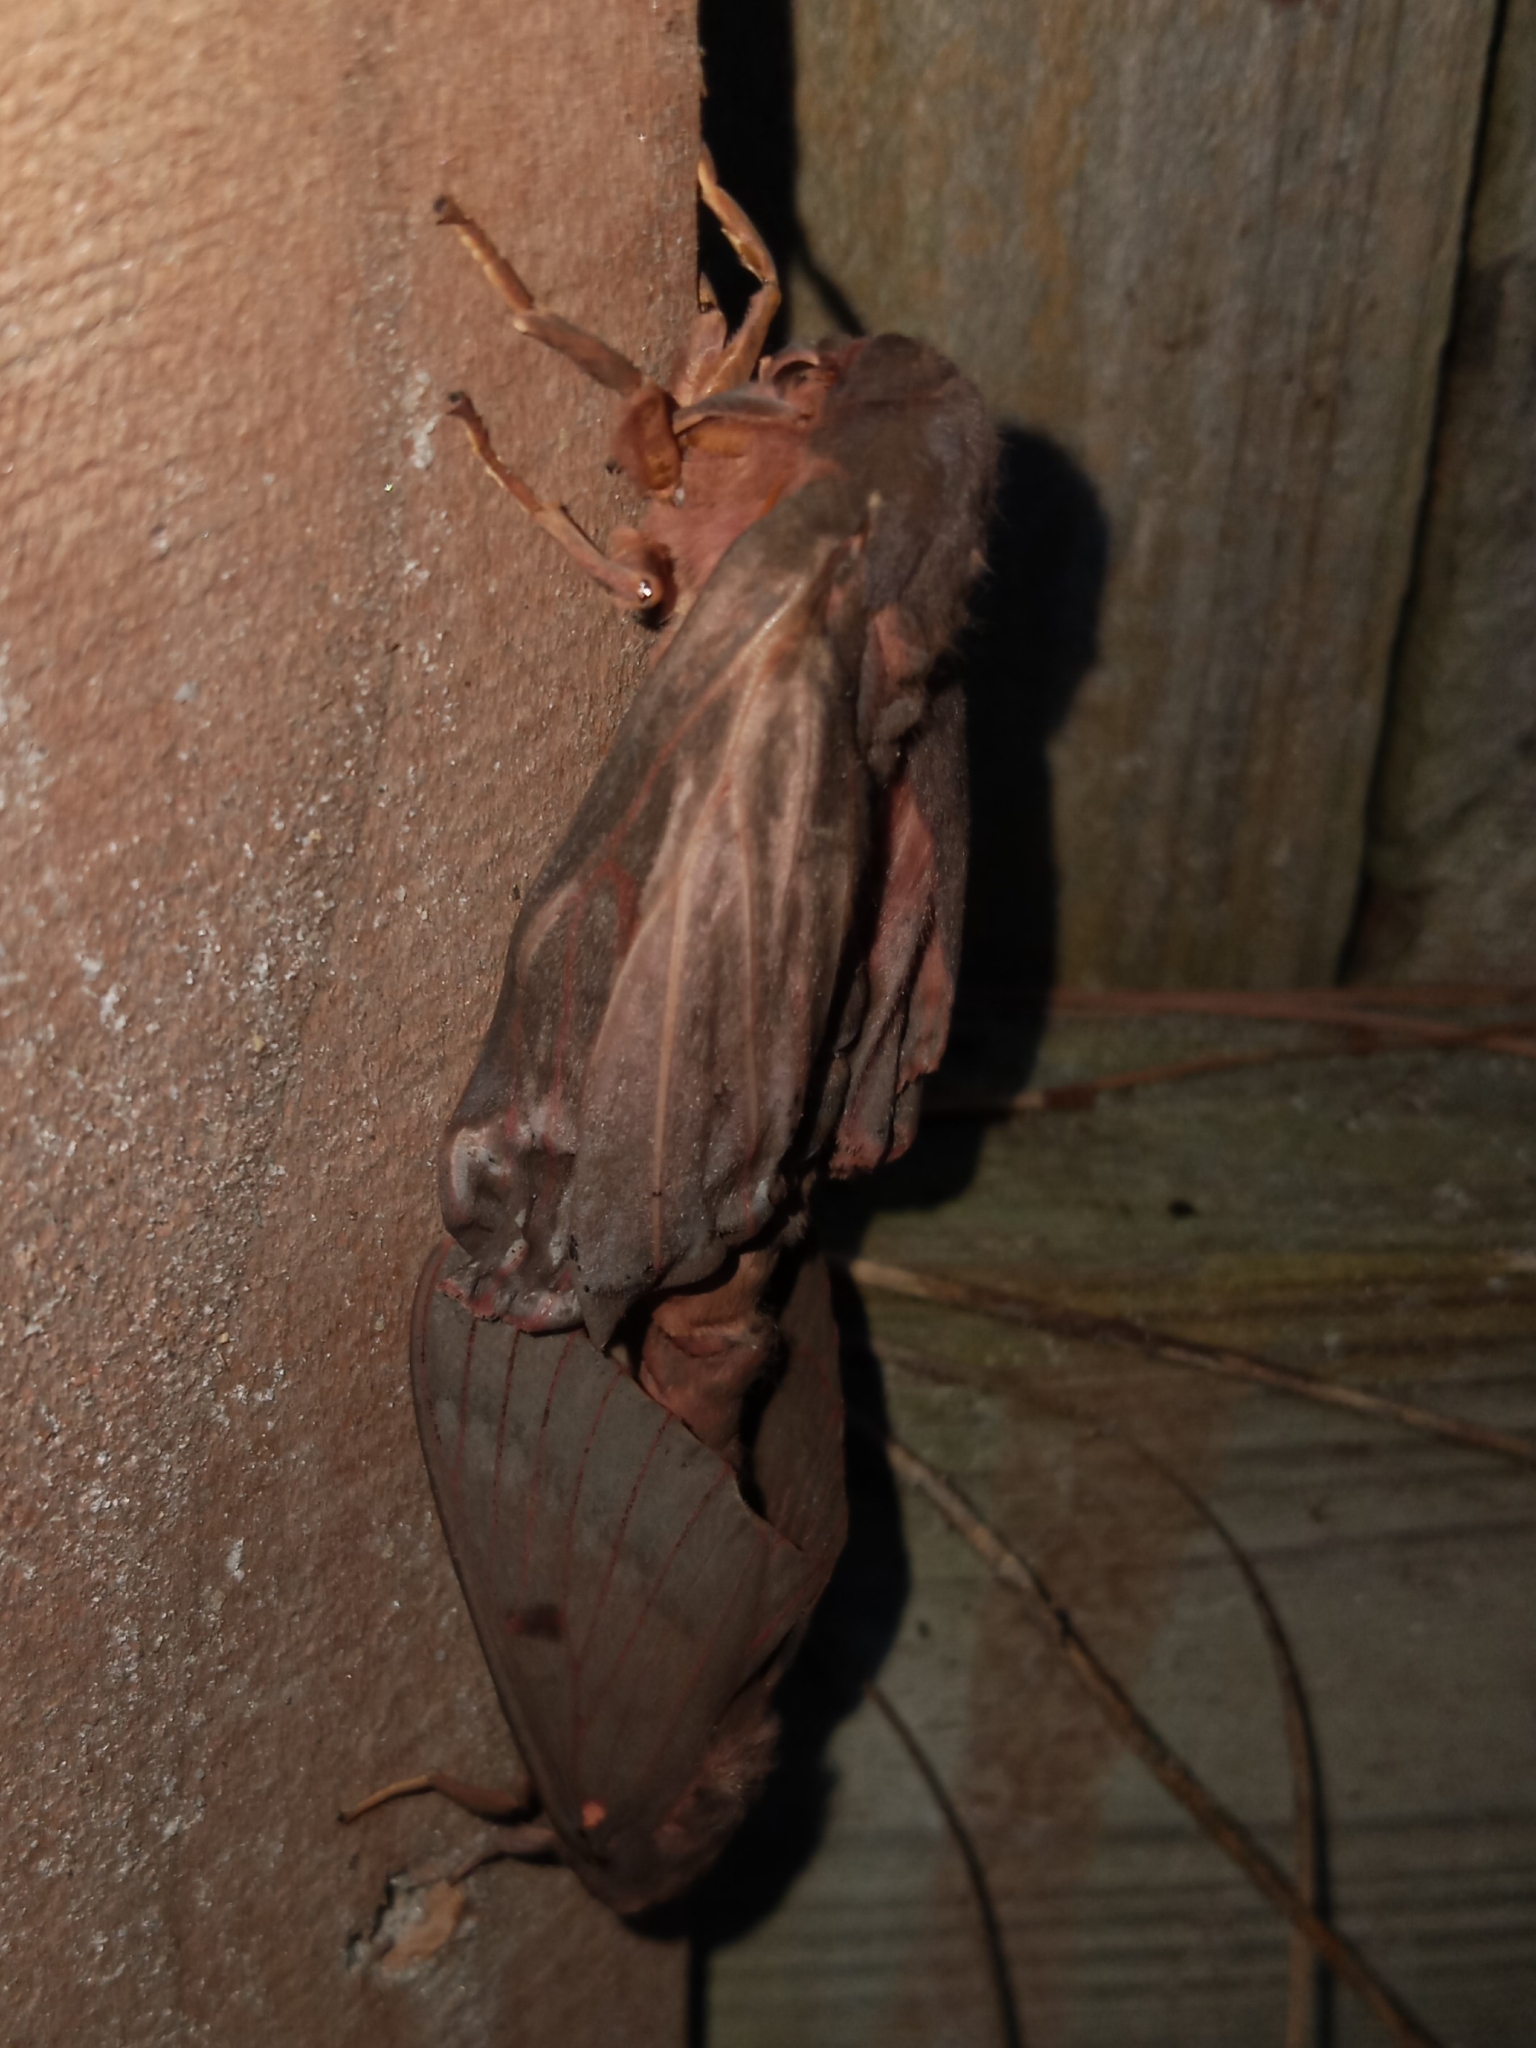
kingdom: Animalia
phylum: Arthropoda
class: Insecta
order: Lepidoptera
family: Saturniidae
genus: Citheronia
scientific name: Citheronia sepulcralis
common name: Pine-devil moth
